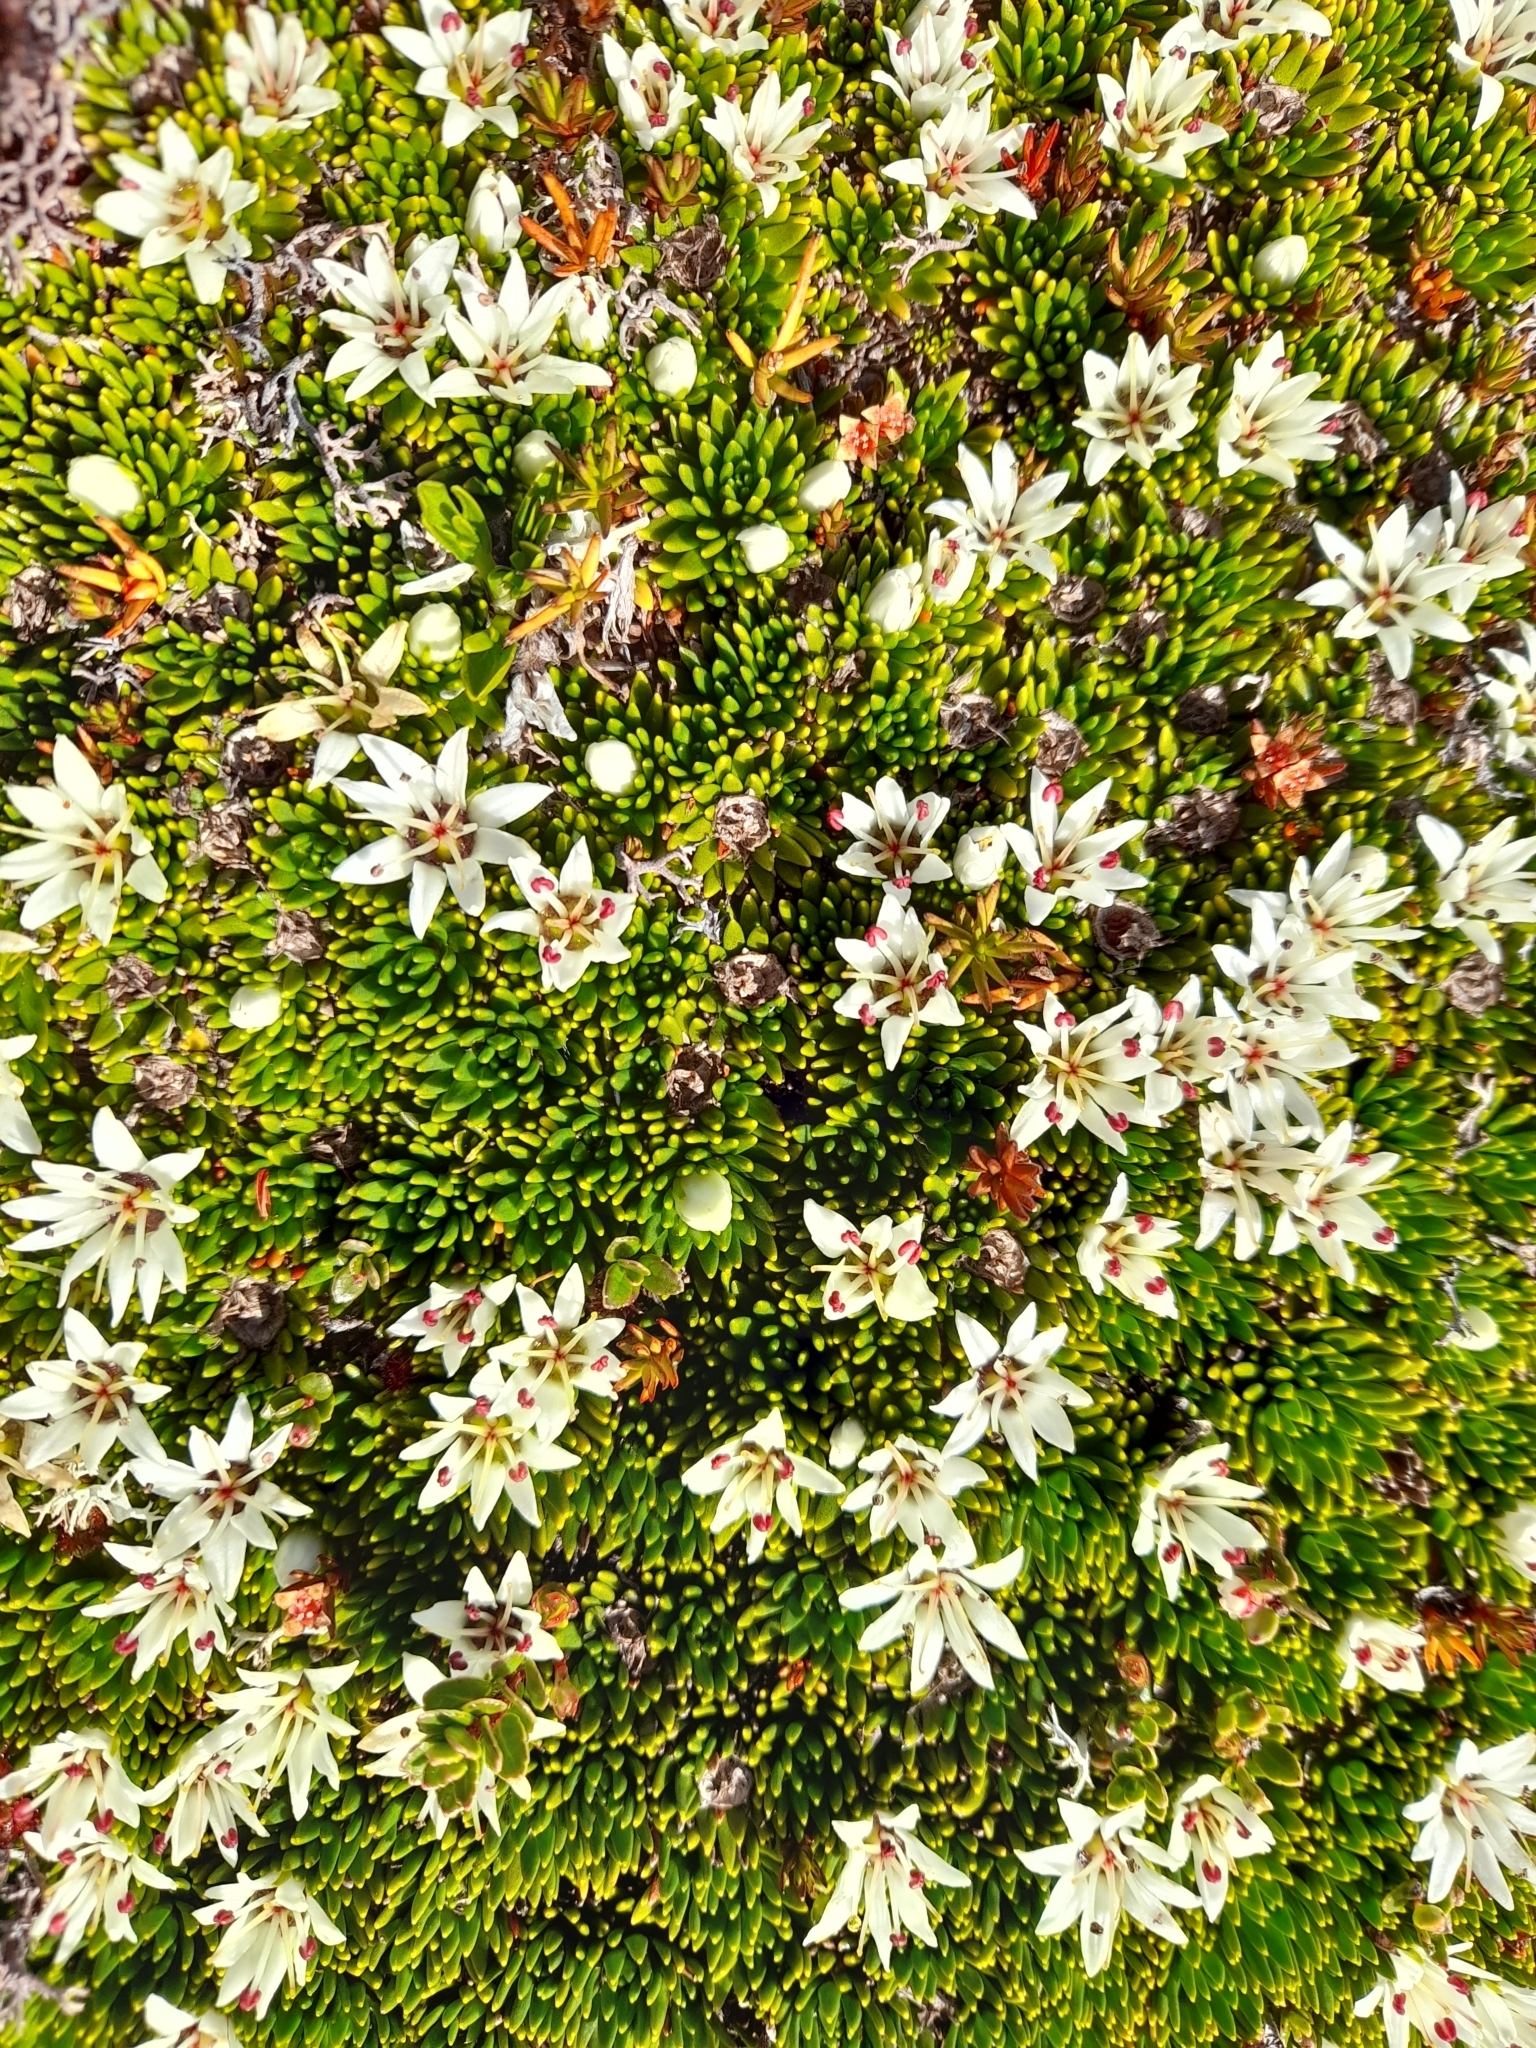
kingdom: Plantae
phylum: Tracheophyta
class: Magnoliopsida
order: Asterales
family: Stylidiaceae
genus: Donatia
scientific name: Donatia fascicularis
